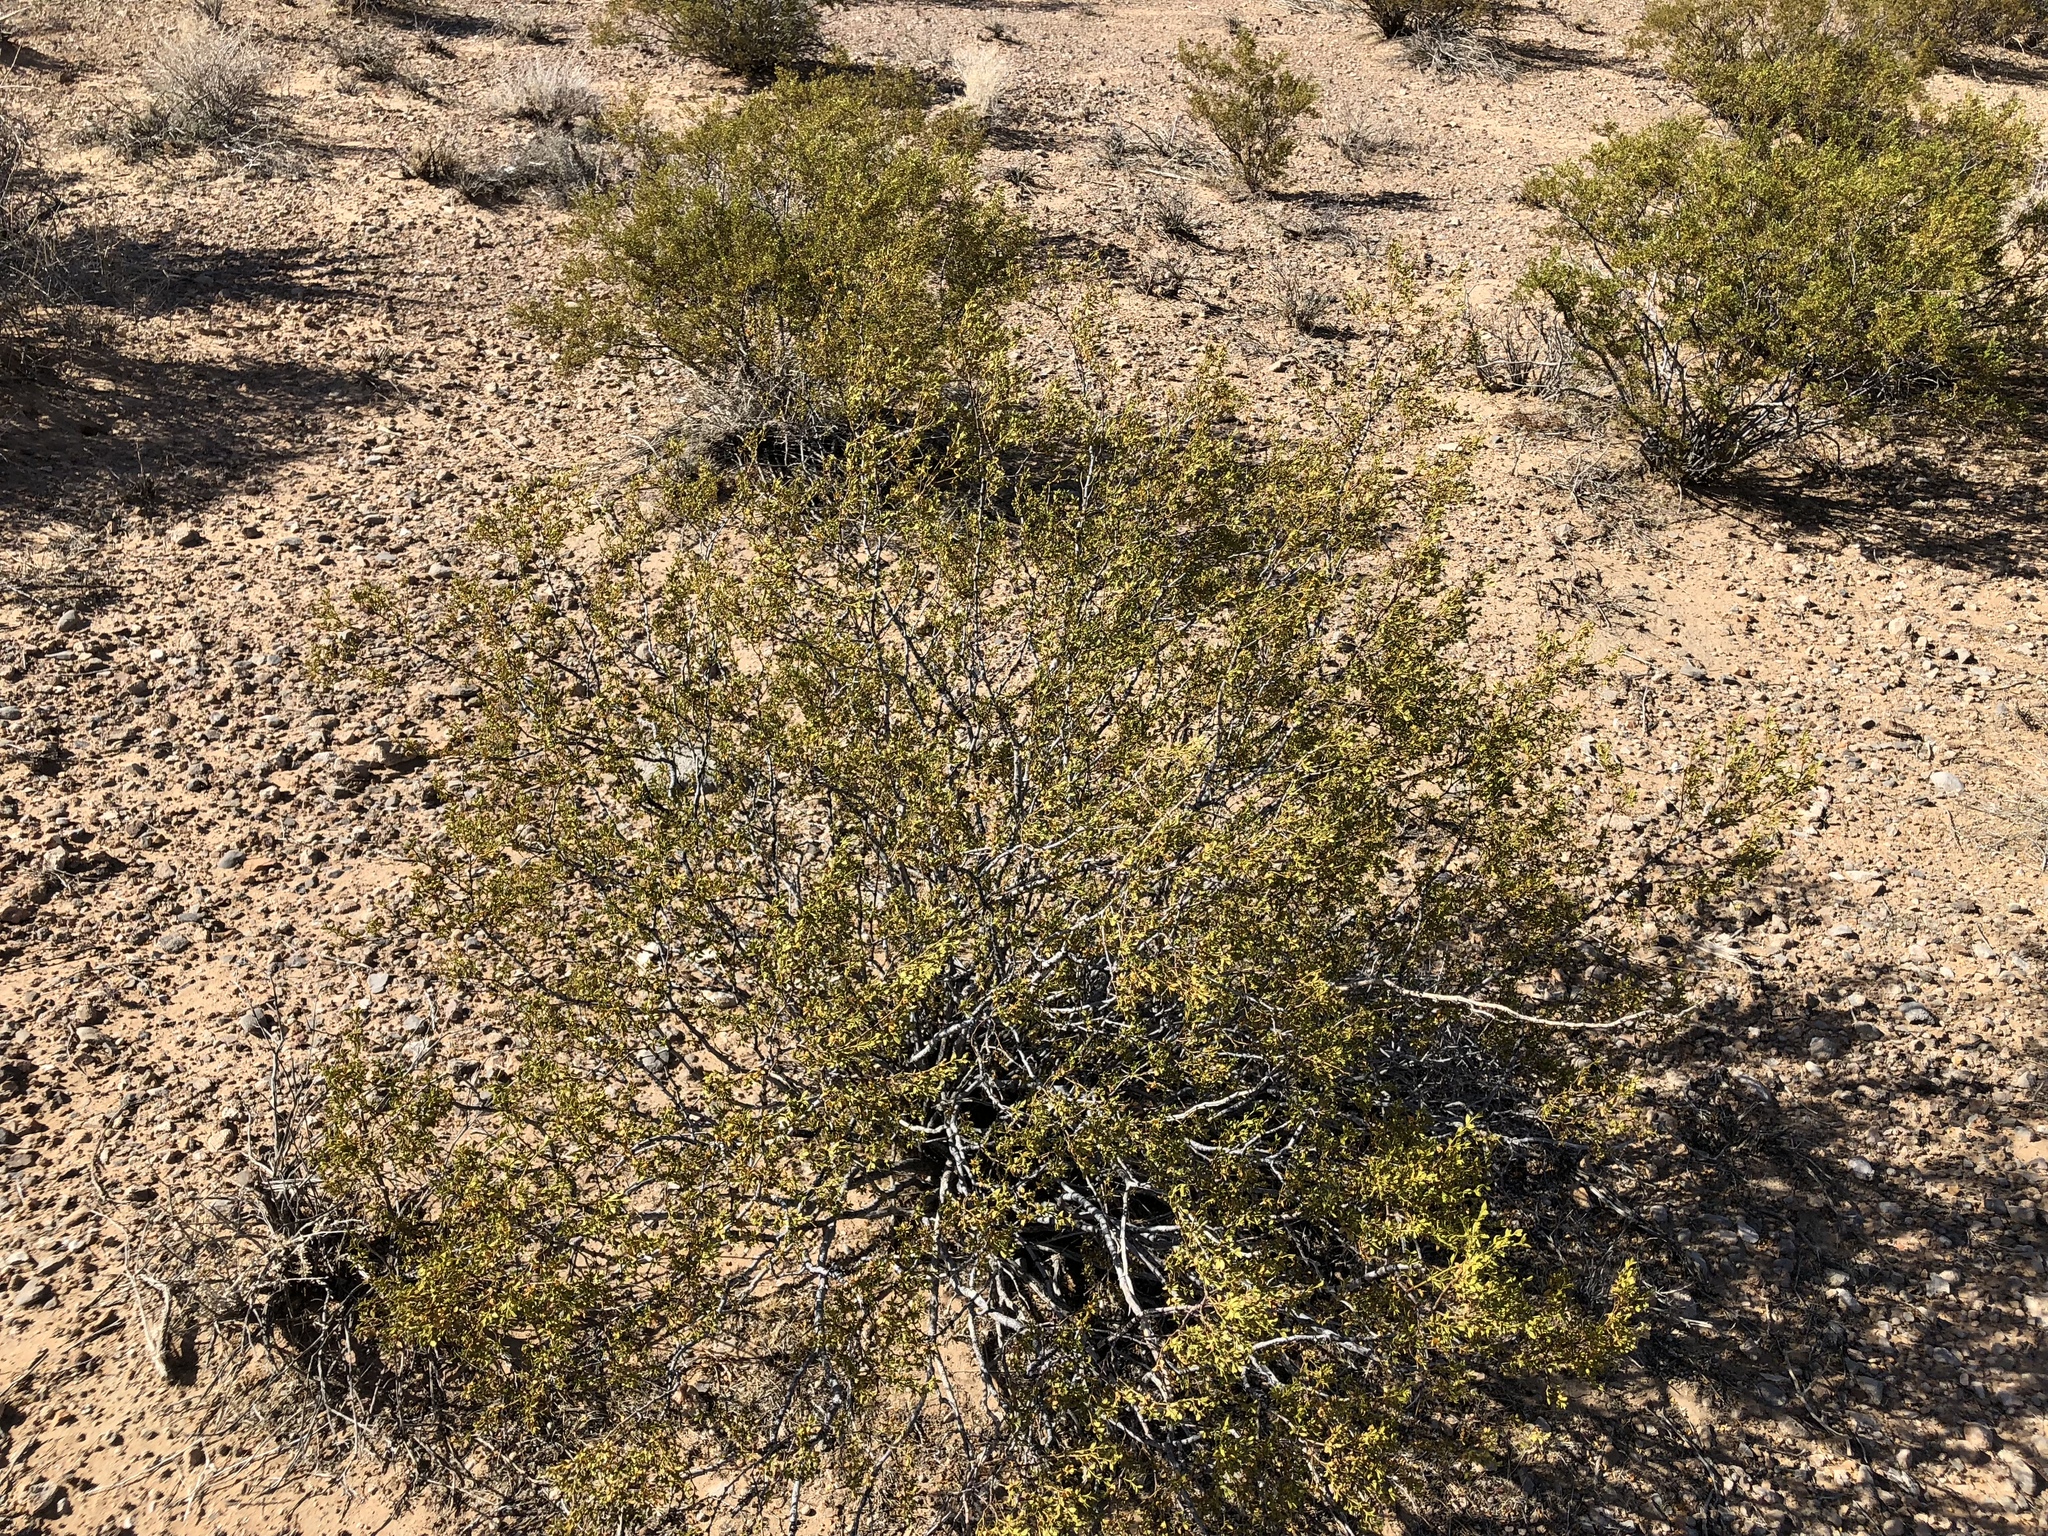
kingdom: Plantae
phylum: Tracheophyta
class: Magnoliopsida
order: Zygophyllales
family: Zygophyllaceae
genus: Larrea
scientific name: Larrea tridentata
